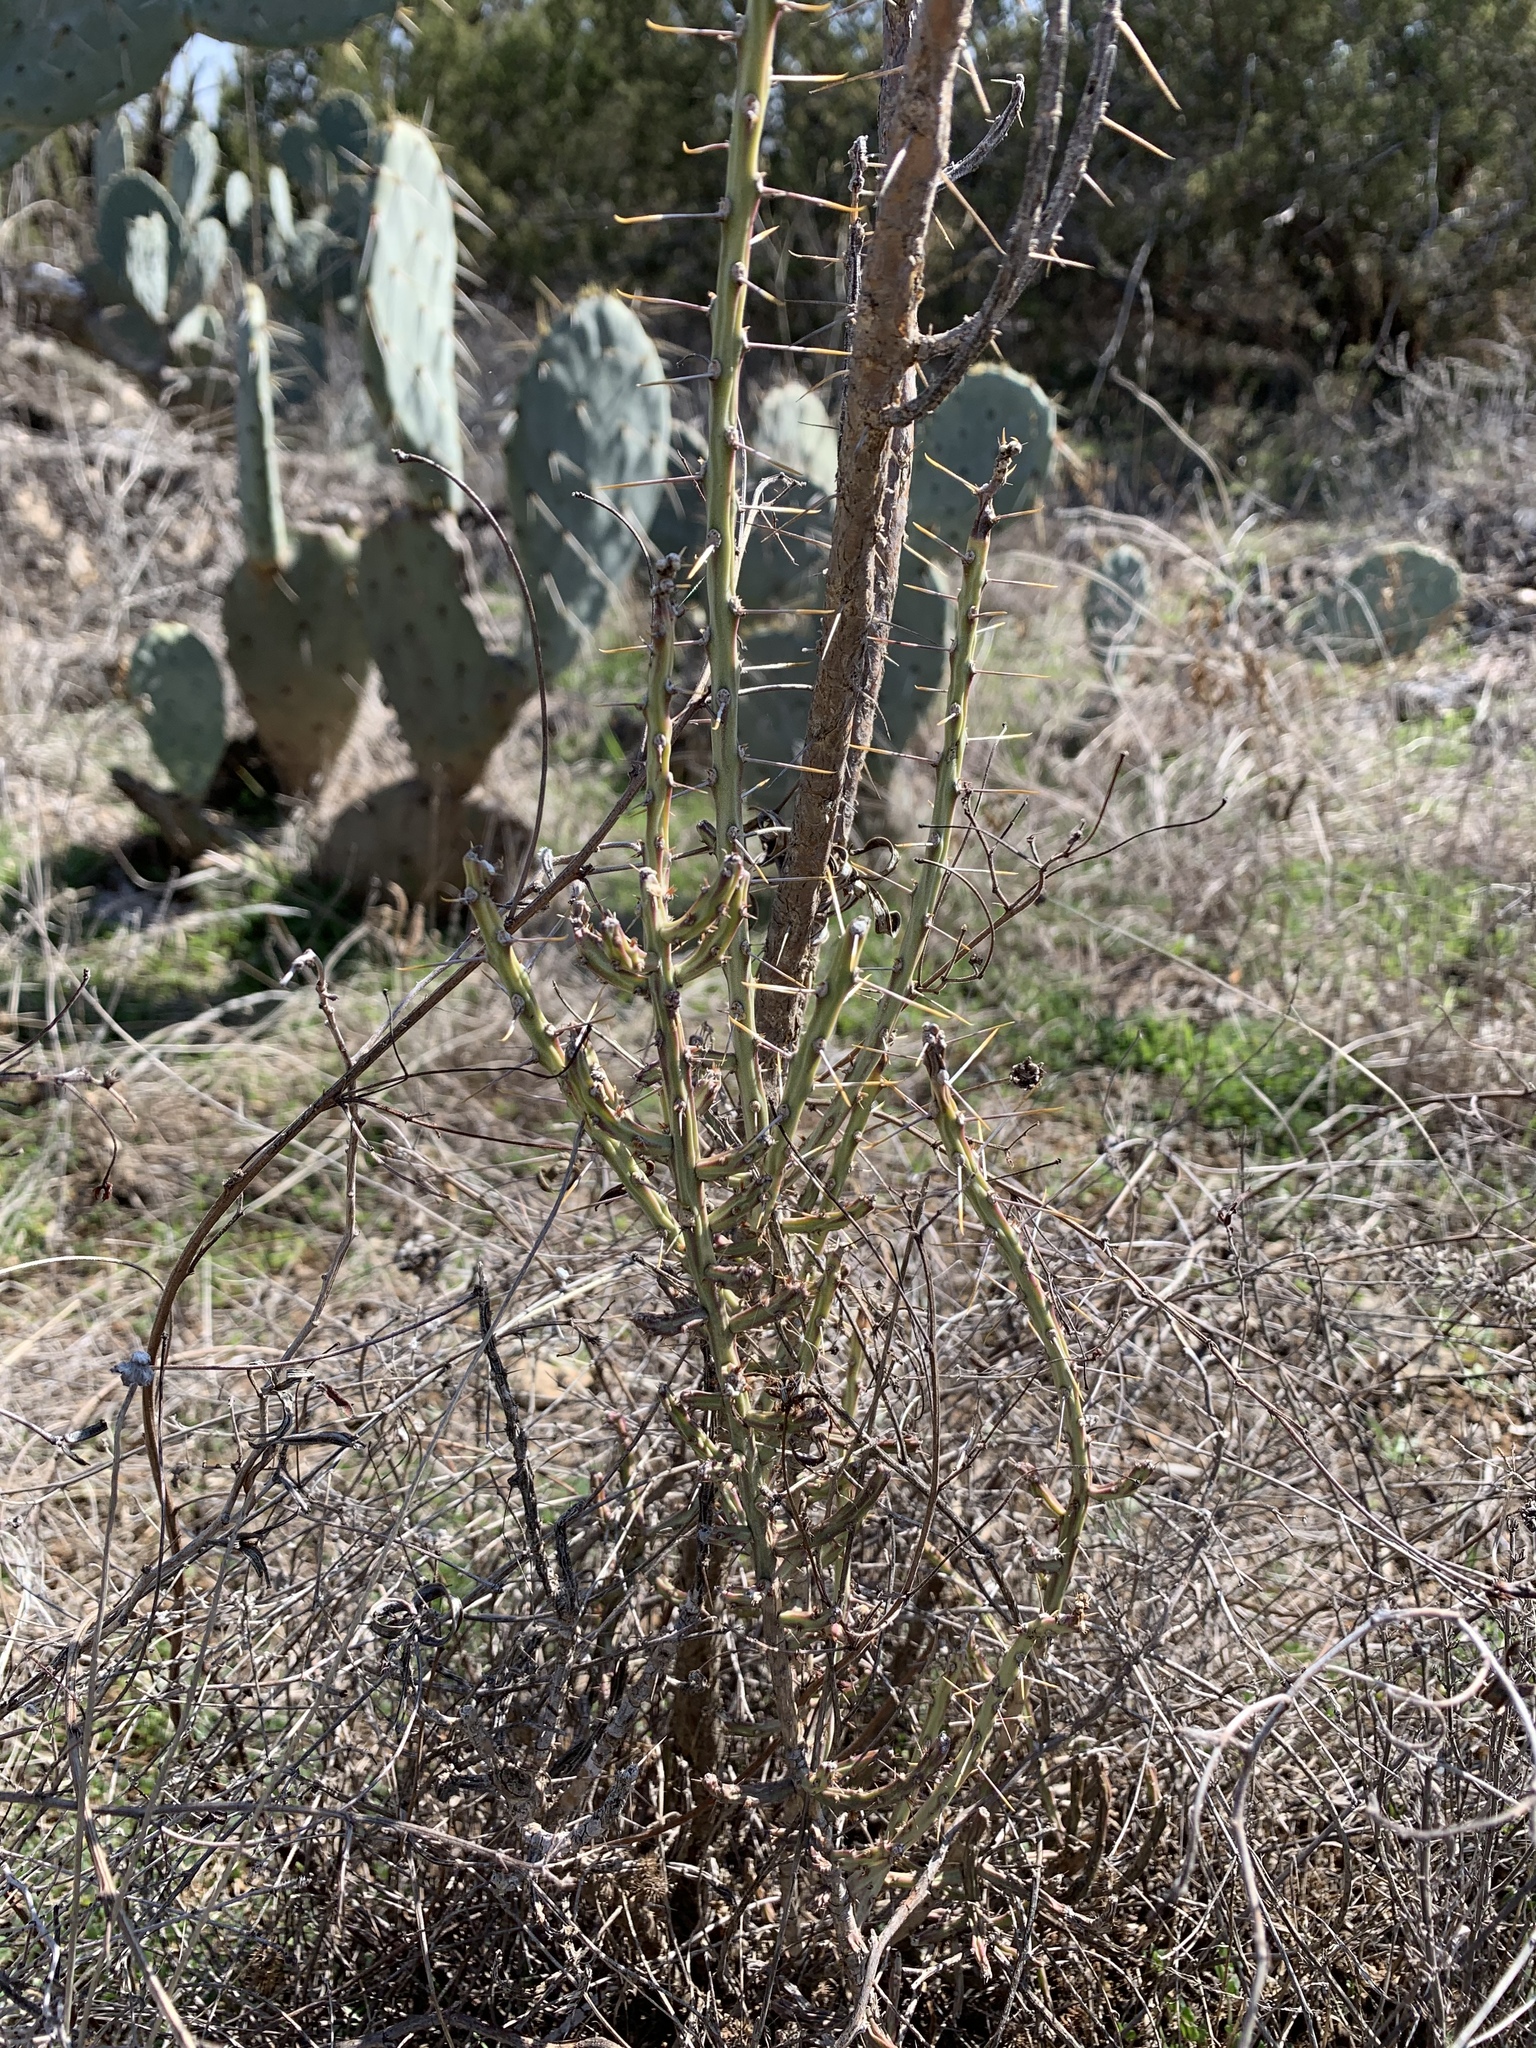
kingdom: Plantae
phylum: Tracheophyta
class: Magnoliopsida
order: Caryophyllales
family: Cactaceae
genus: Cylindropuntia
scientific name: Cylindropuntia leptocaulis
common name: Christmas cactus
